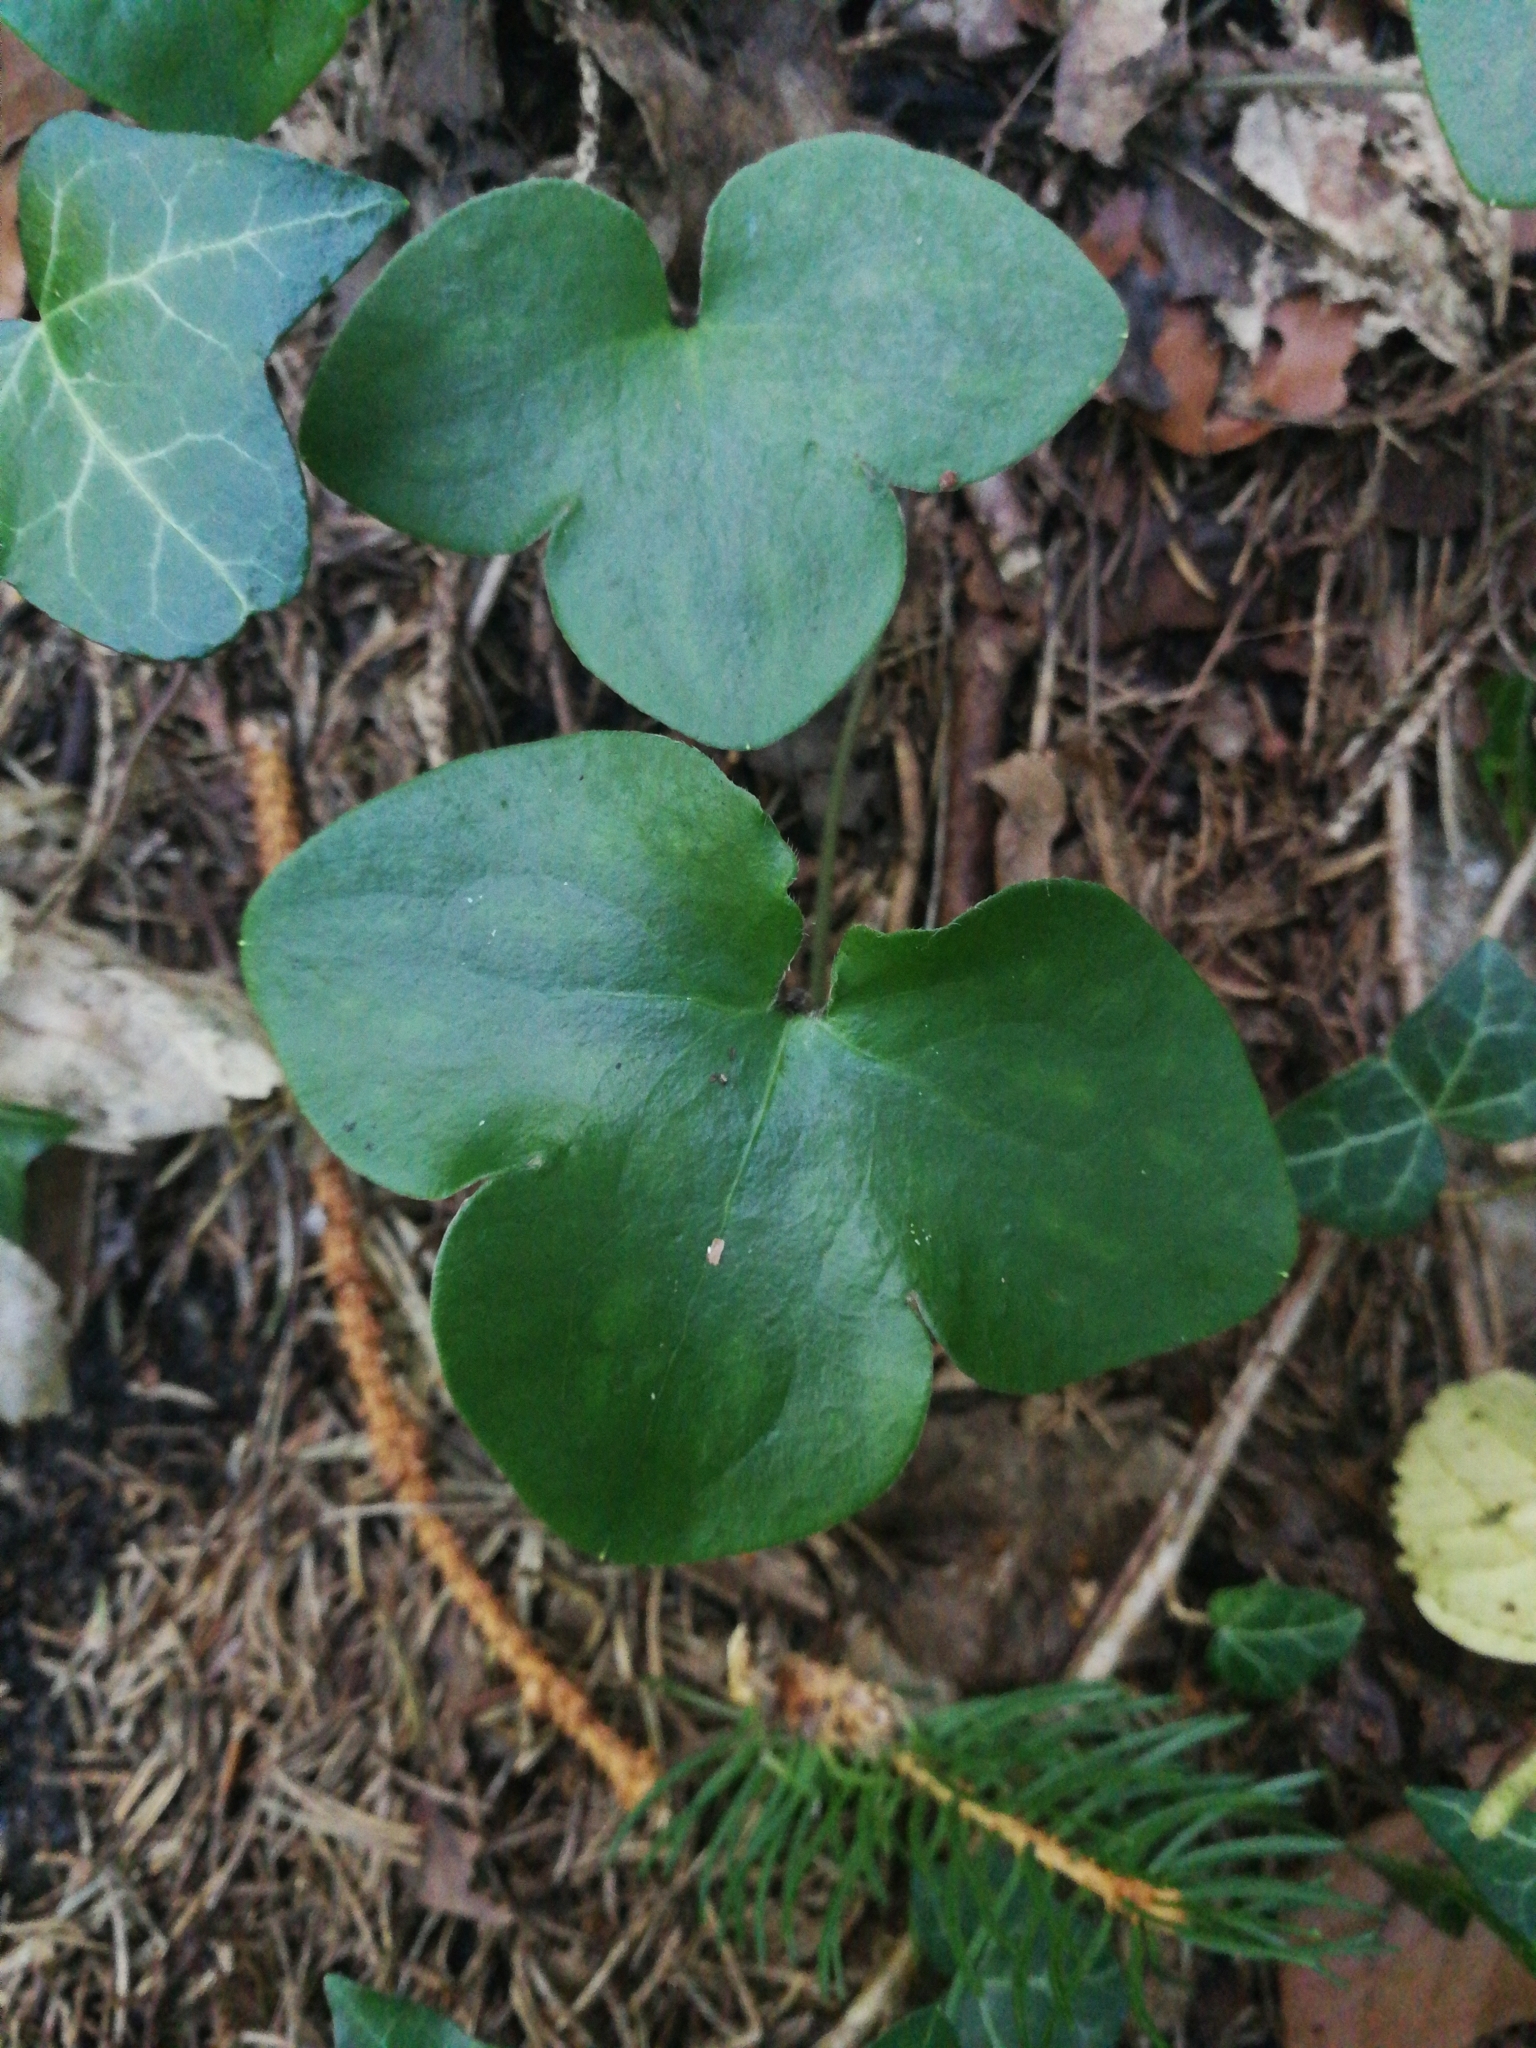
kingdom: Plantae
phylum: Tracheophyta
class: Magnoliopsida
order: Ranunculales
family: Ranunculaceae
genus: Hepatica
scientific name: Hepatica nobilis
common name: Liverleaf
